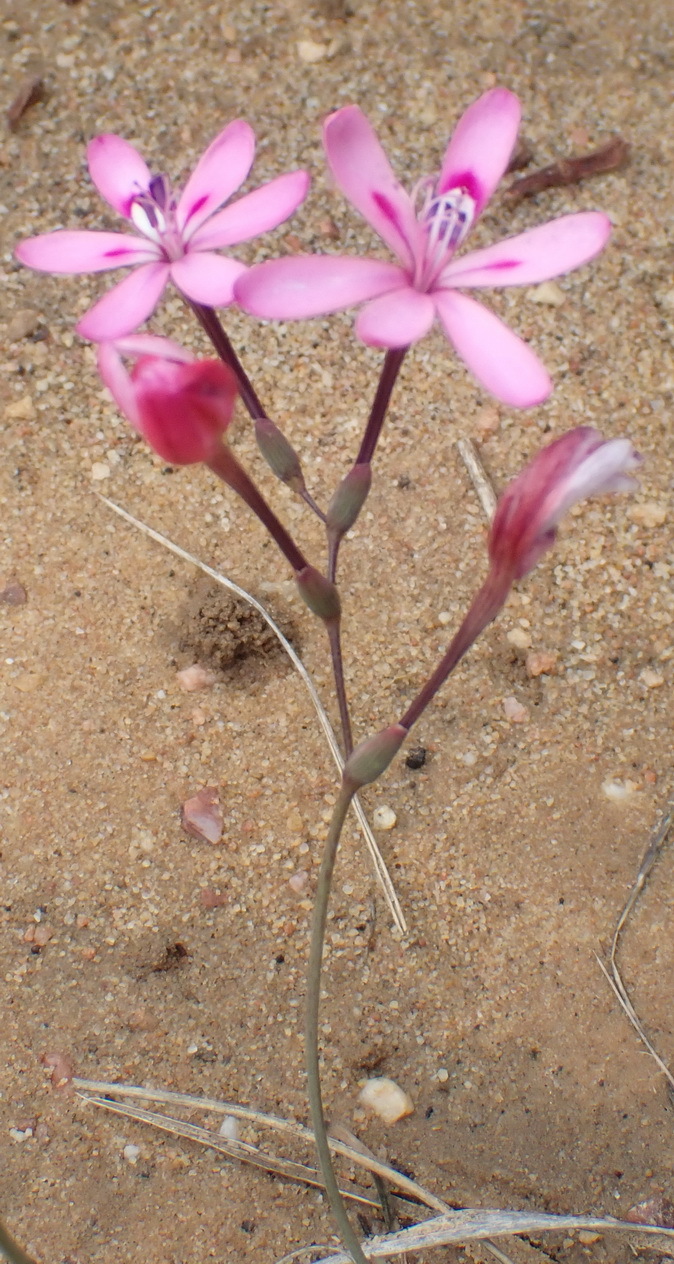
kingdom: Plantae
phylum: Tracheophyta
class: Liliopsida
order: Asparagales
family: Iridaceae
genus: Freesia
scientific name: Freesia verrucosa
